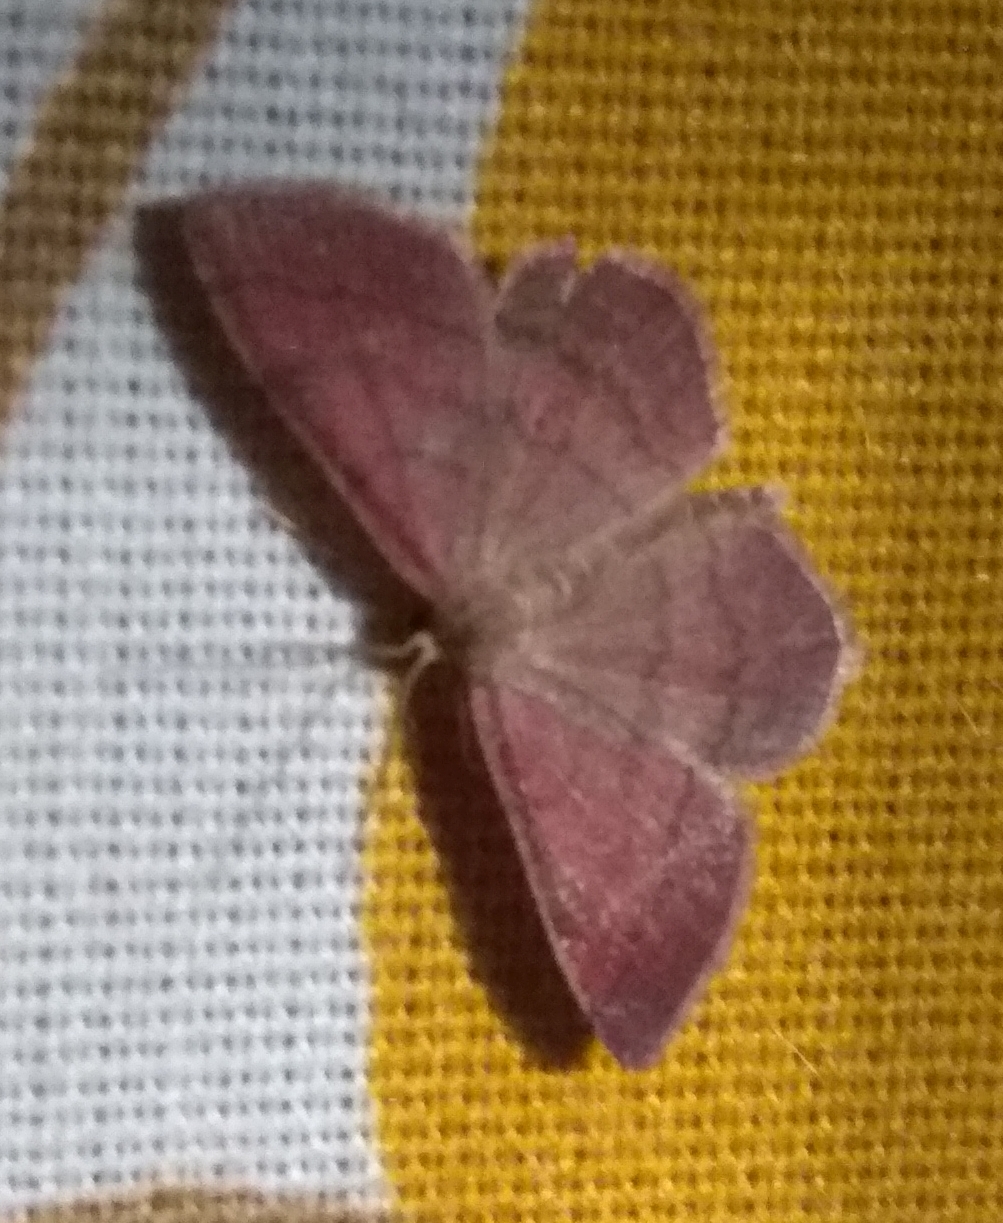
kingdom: Animalia
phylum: Arthropoda
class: Insecta
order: Lepidoptera
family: Geometridae
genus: Scopula
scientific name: Scopula rubiginata
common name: Tawny wave
